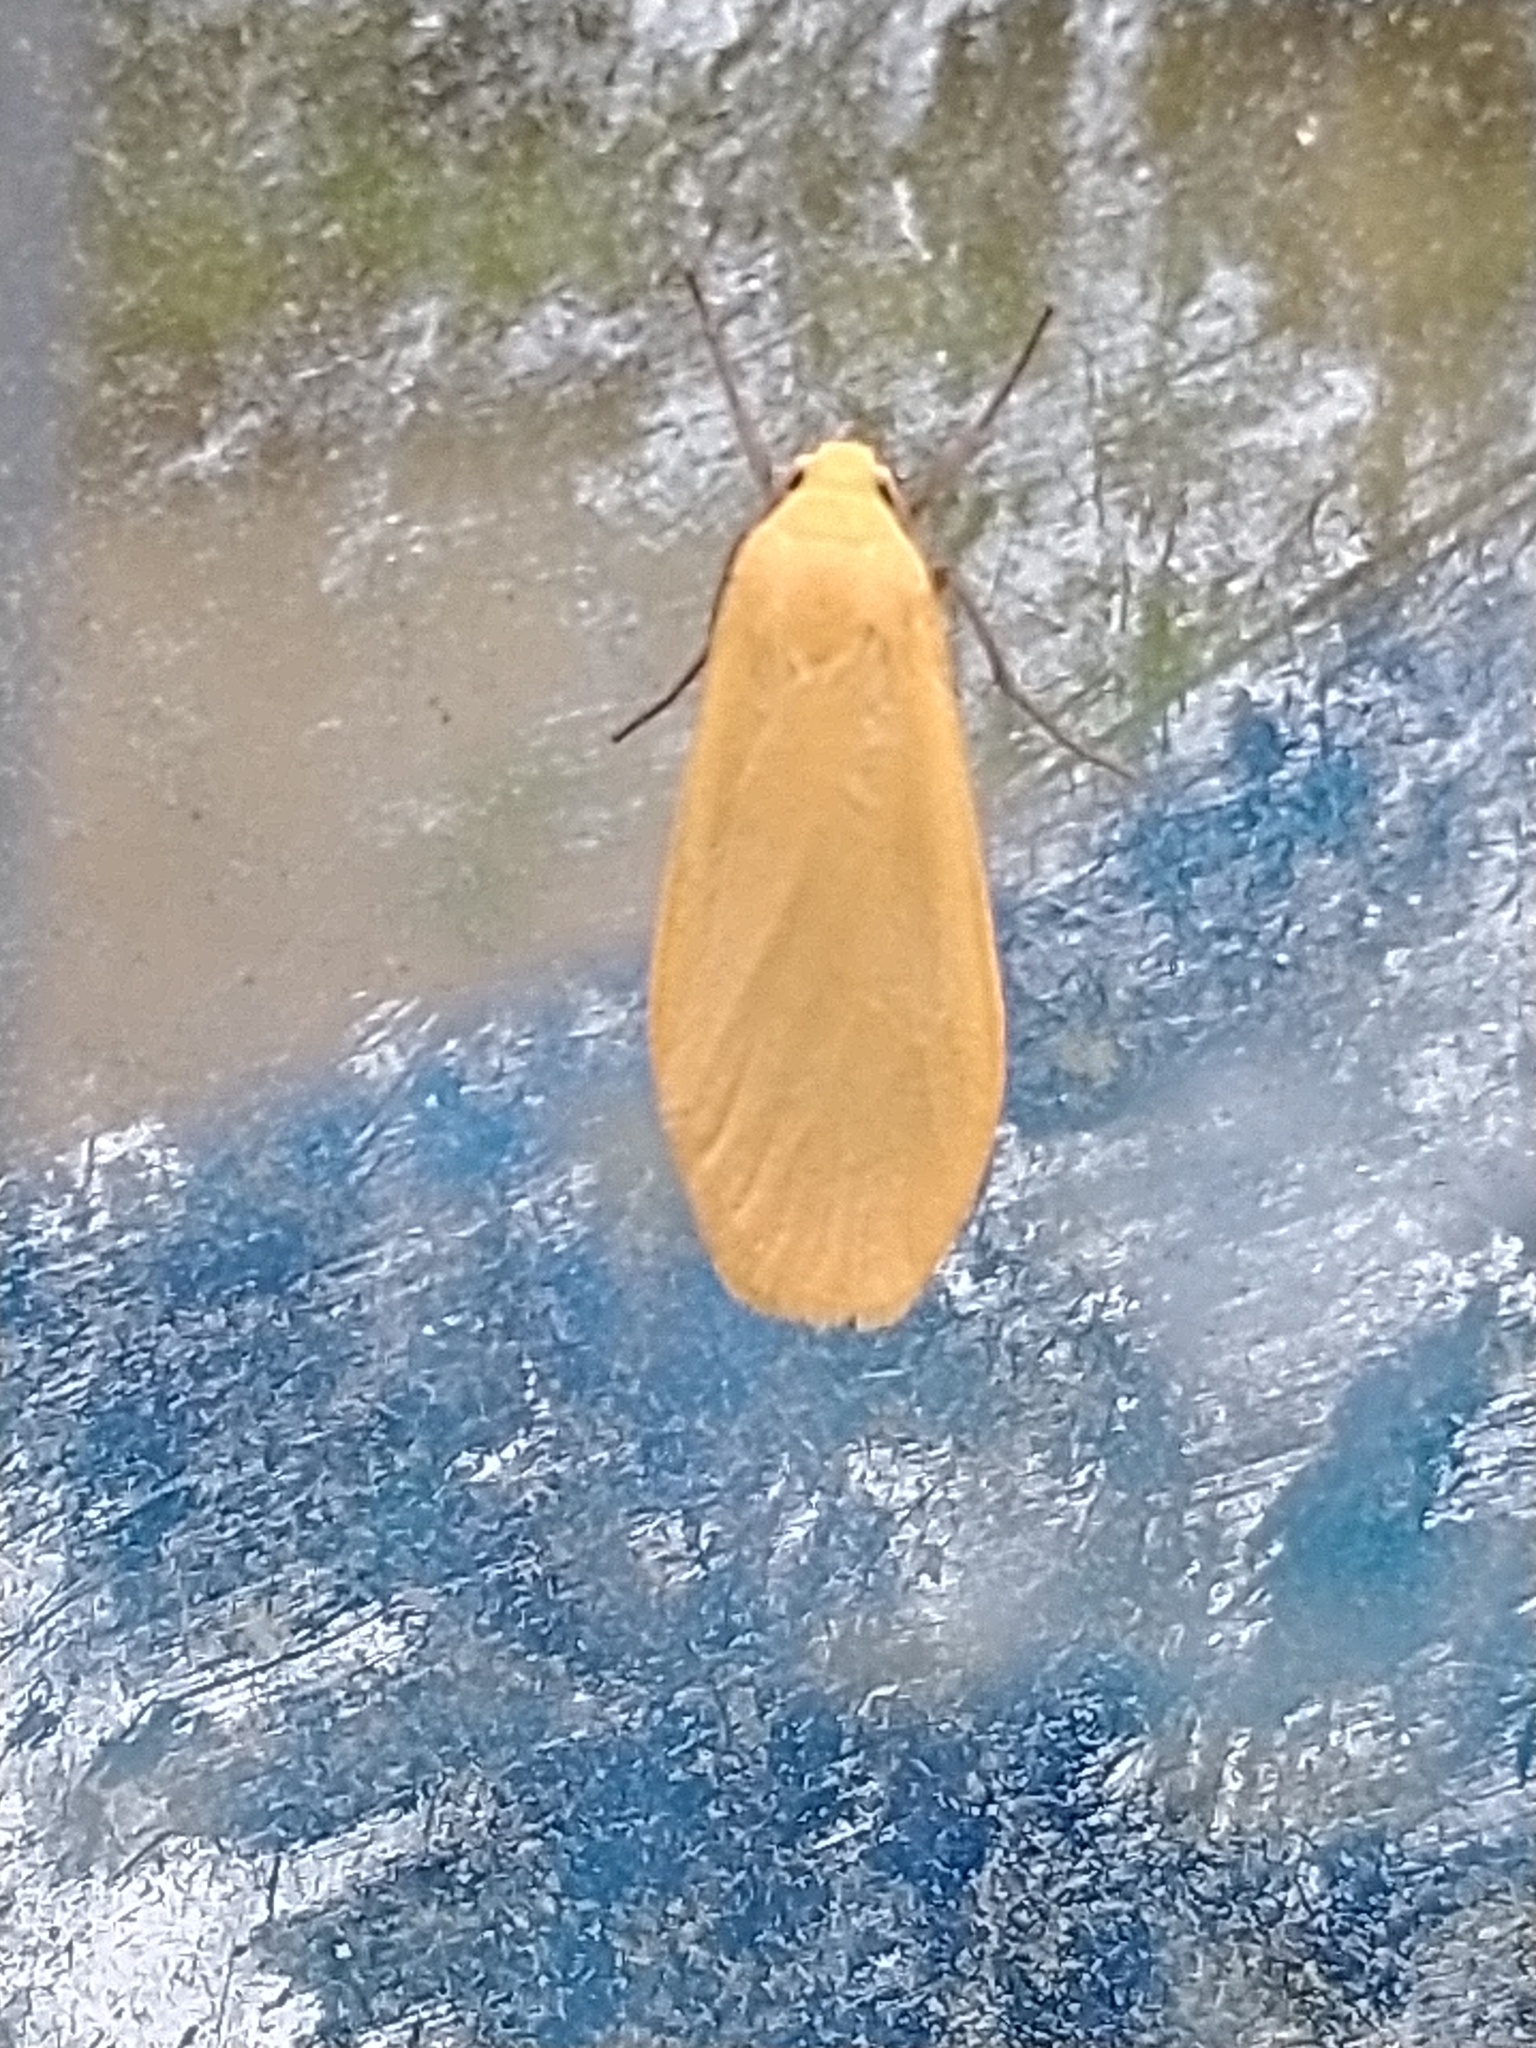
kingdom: Animalia
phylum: Arthropoda
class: Insecta
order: Lepidoptera
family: Erebidae
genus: Wittia
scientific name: Wittia sororcula
